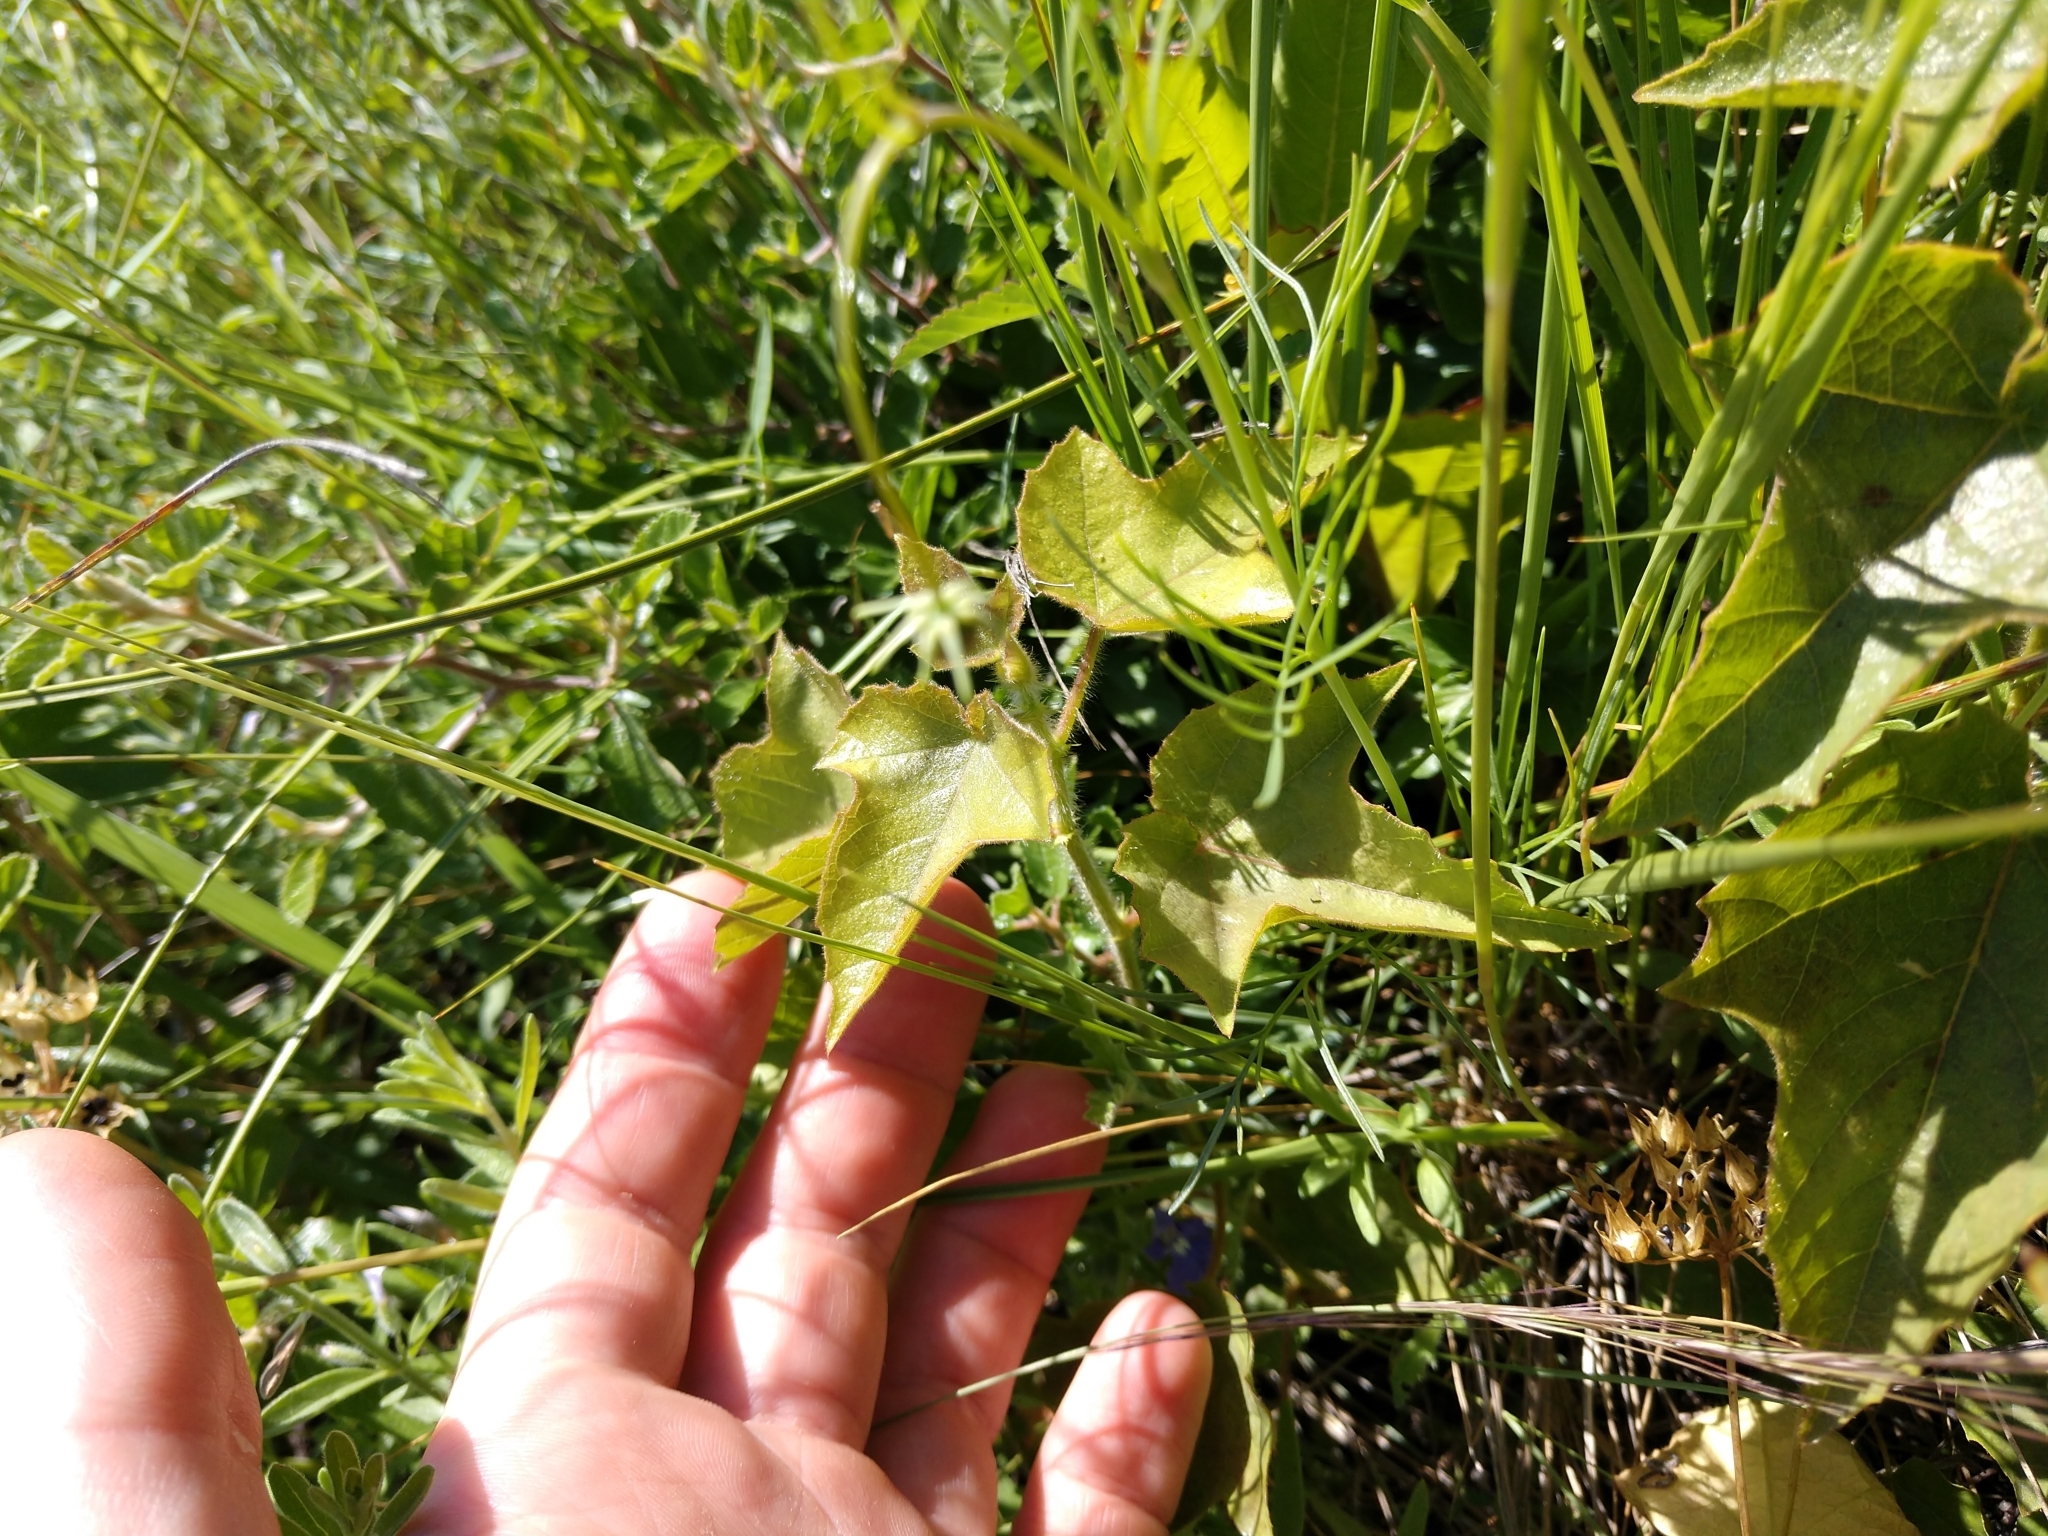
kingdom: Plantae
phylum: Tracheophyta
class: Magnoliopsida
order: Malpighiales
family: Passifloraceae
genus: Passiflora
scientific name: Passiflora
